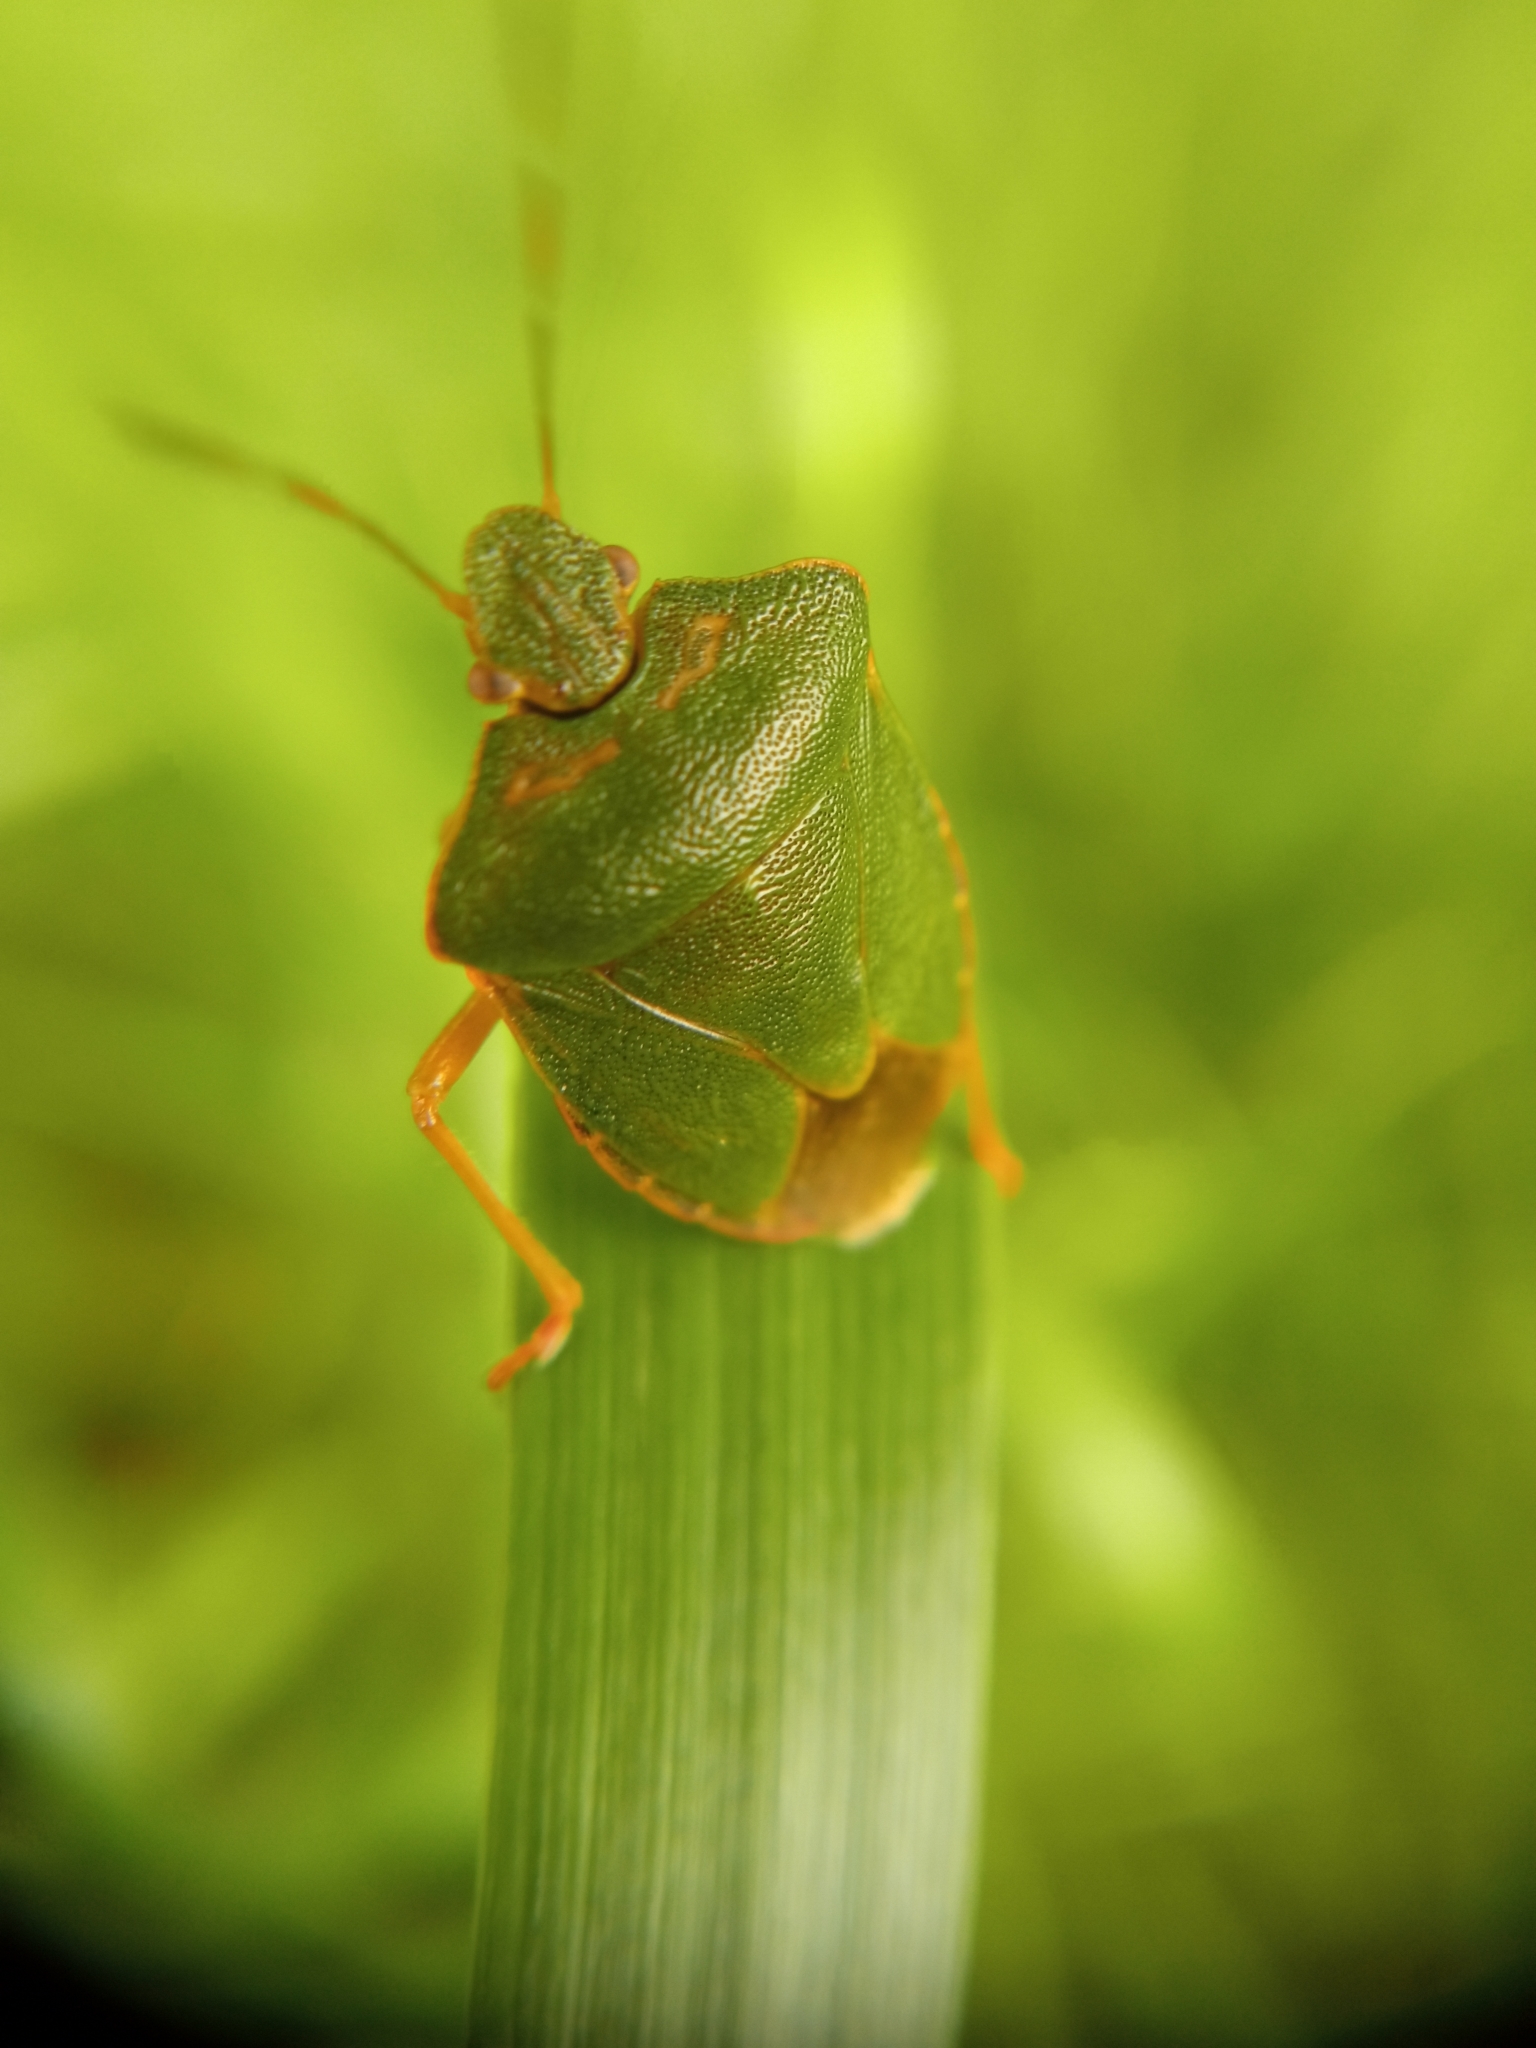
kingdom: Animalia
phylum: Arthropoda
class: Insecta
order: Hemiptera
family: Pentatomidae
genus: Palomena
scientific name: Palomena prasina
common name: Green shieldbug
